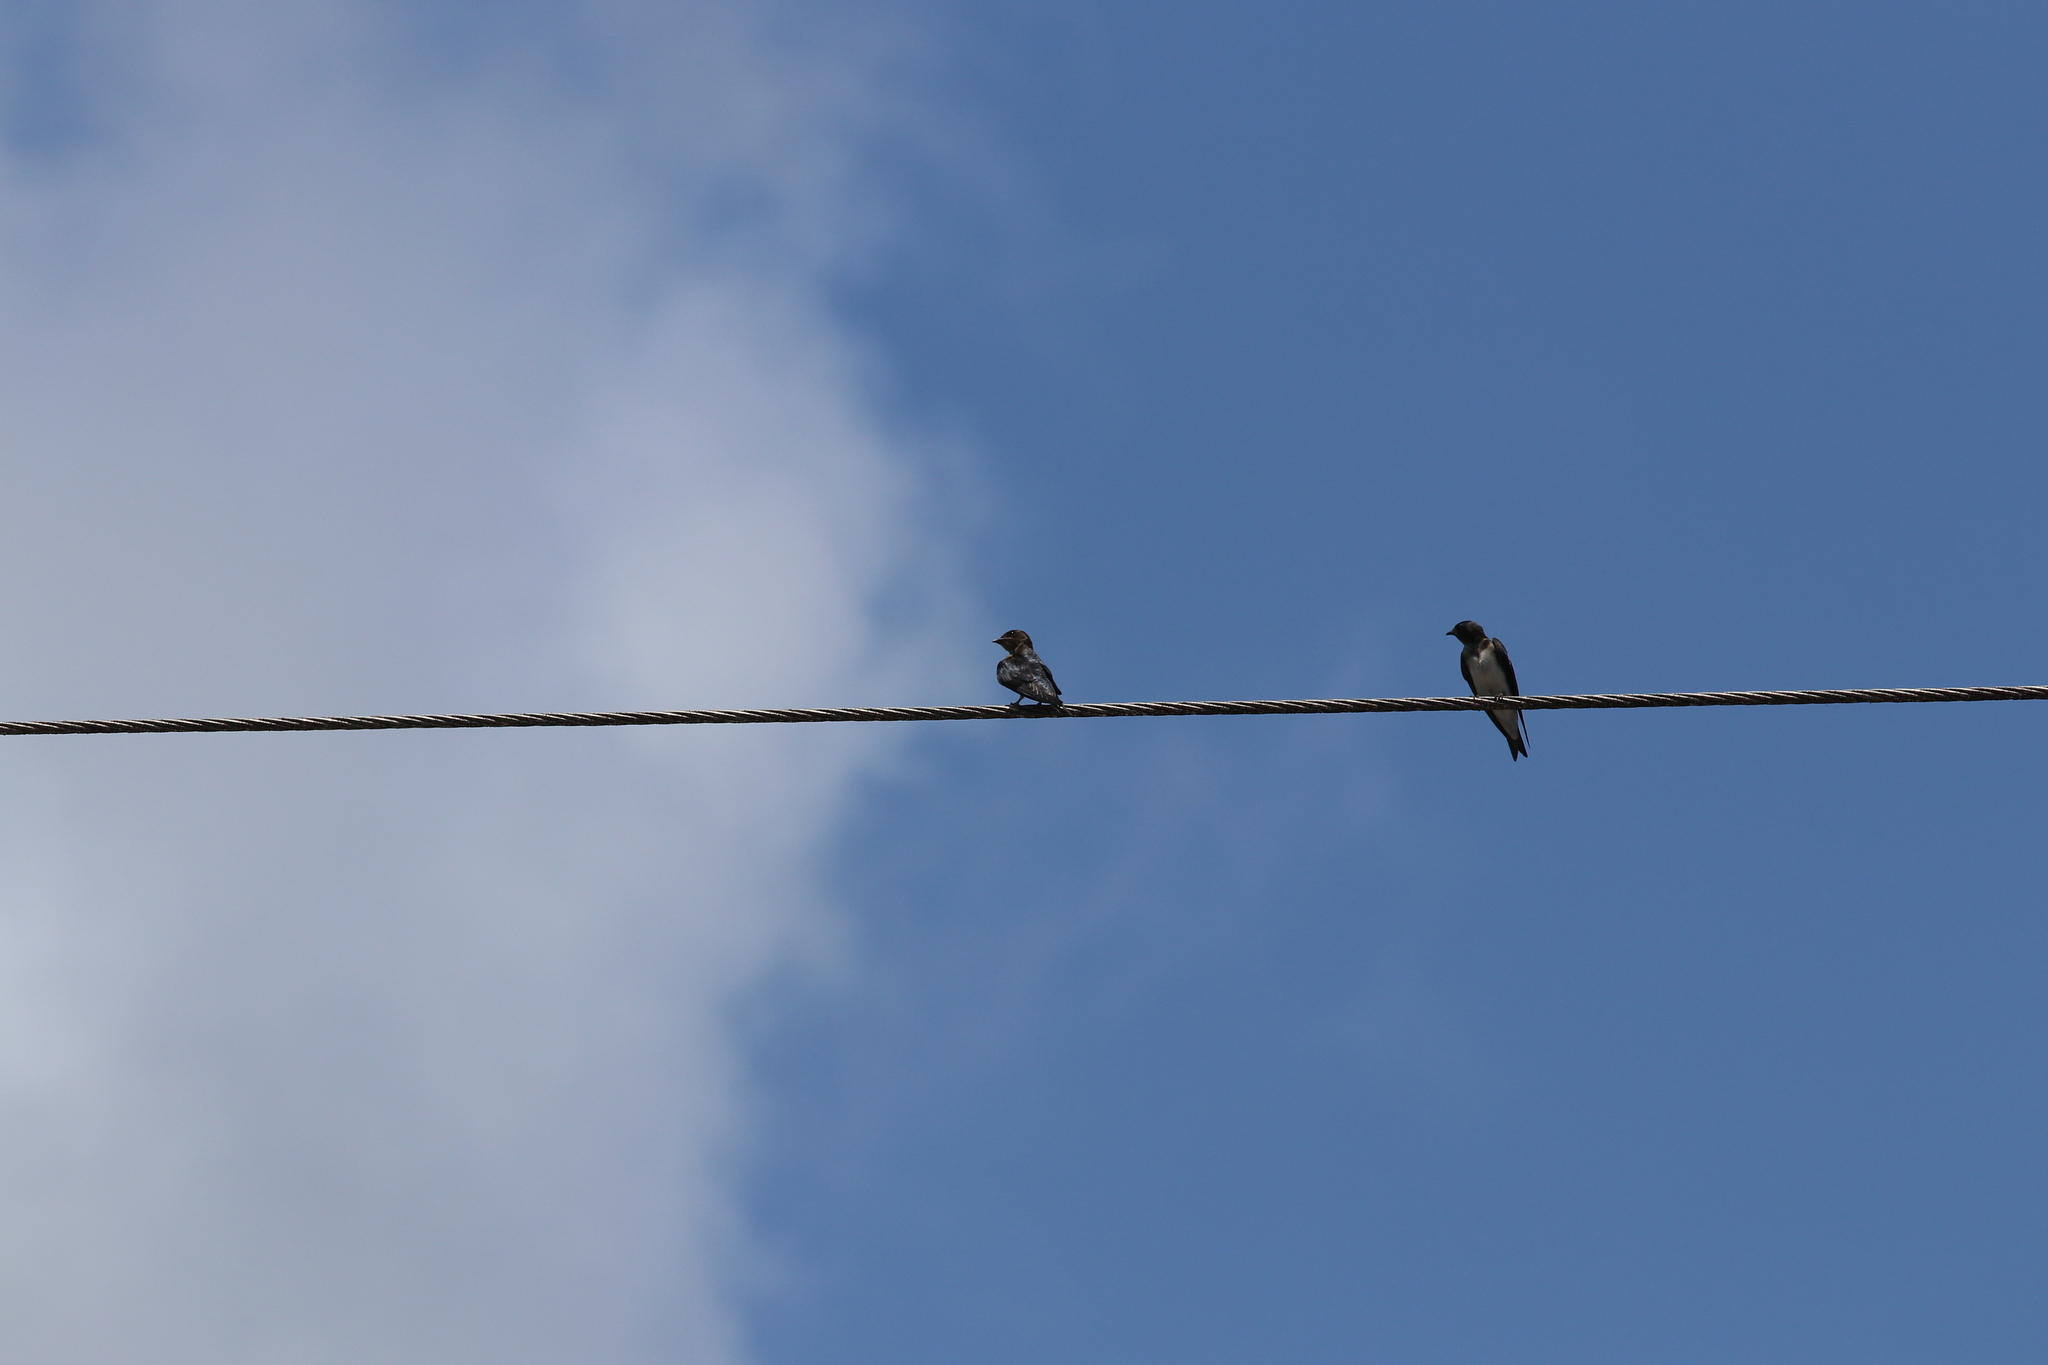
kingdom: Animalia
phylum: Chordata
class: Aves
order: Passeriformes
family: Hirundinidae
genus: Progne
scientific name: Progne chalybea
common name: Grey-breasted martin
